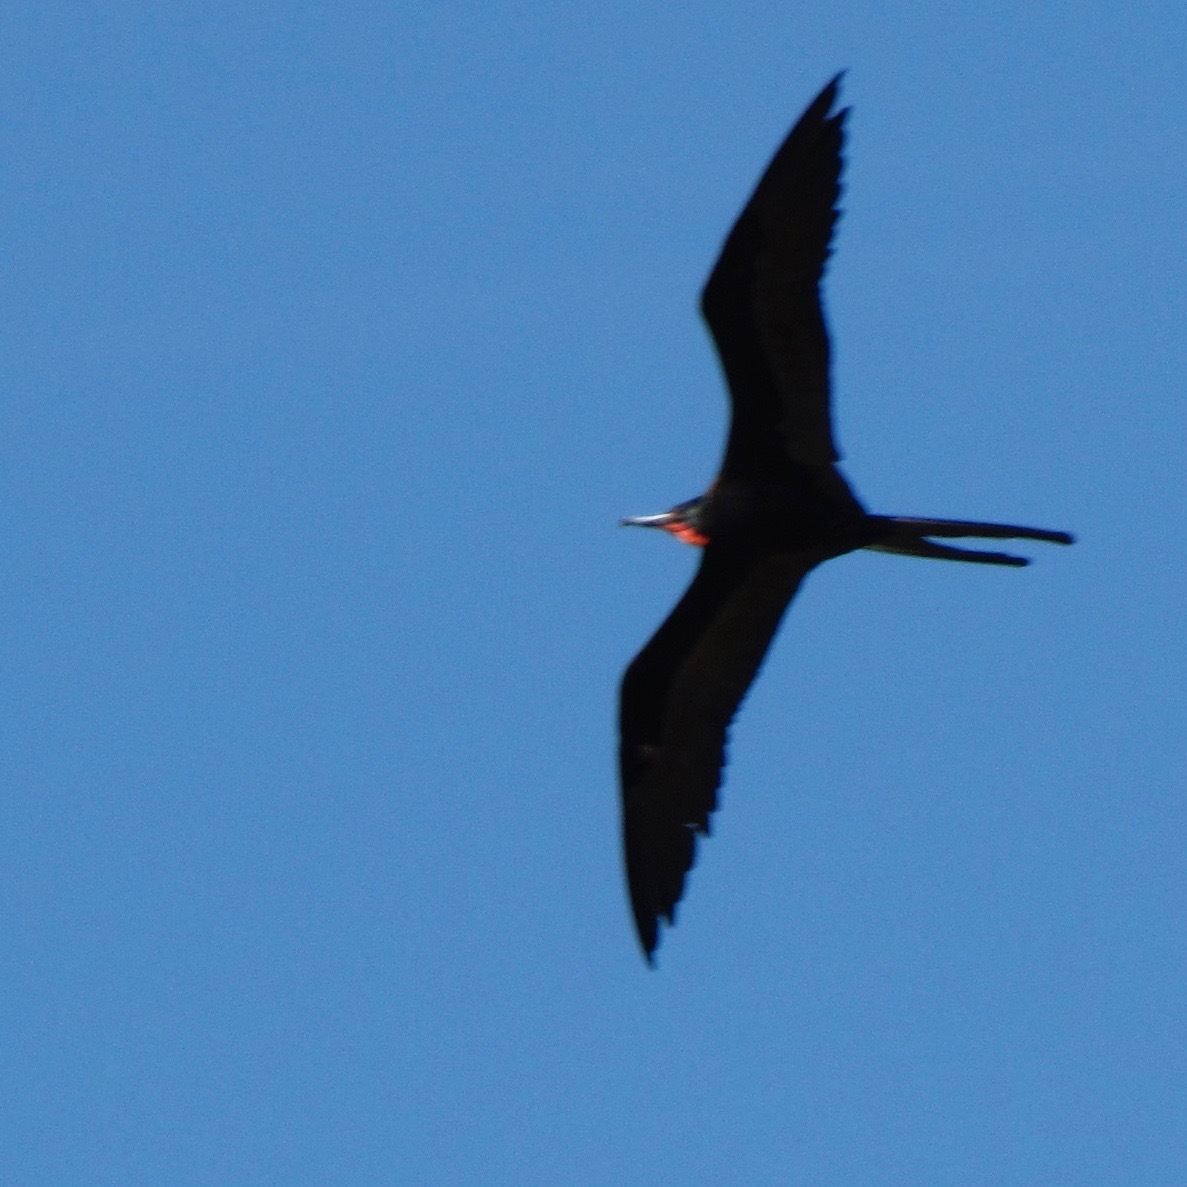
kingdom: Animalia
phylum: Chordata
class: Aves
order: Suliformes
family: Fregatidae
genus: Fregata
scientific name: Fregata magnificens
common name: Magnificent frigatebird
